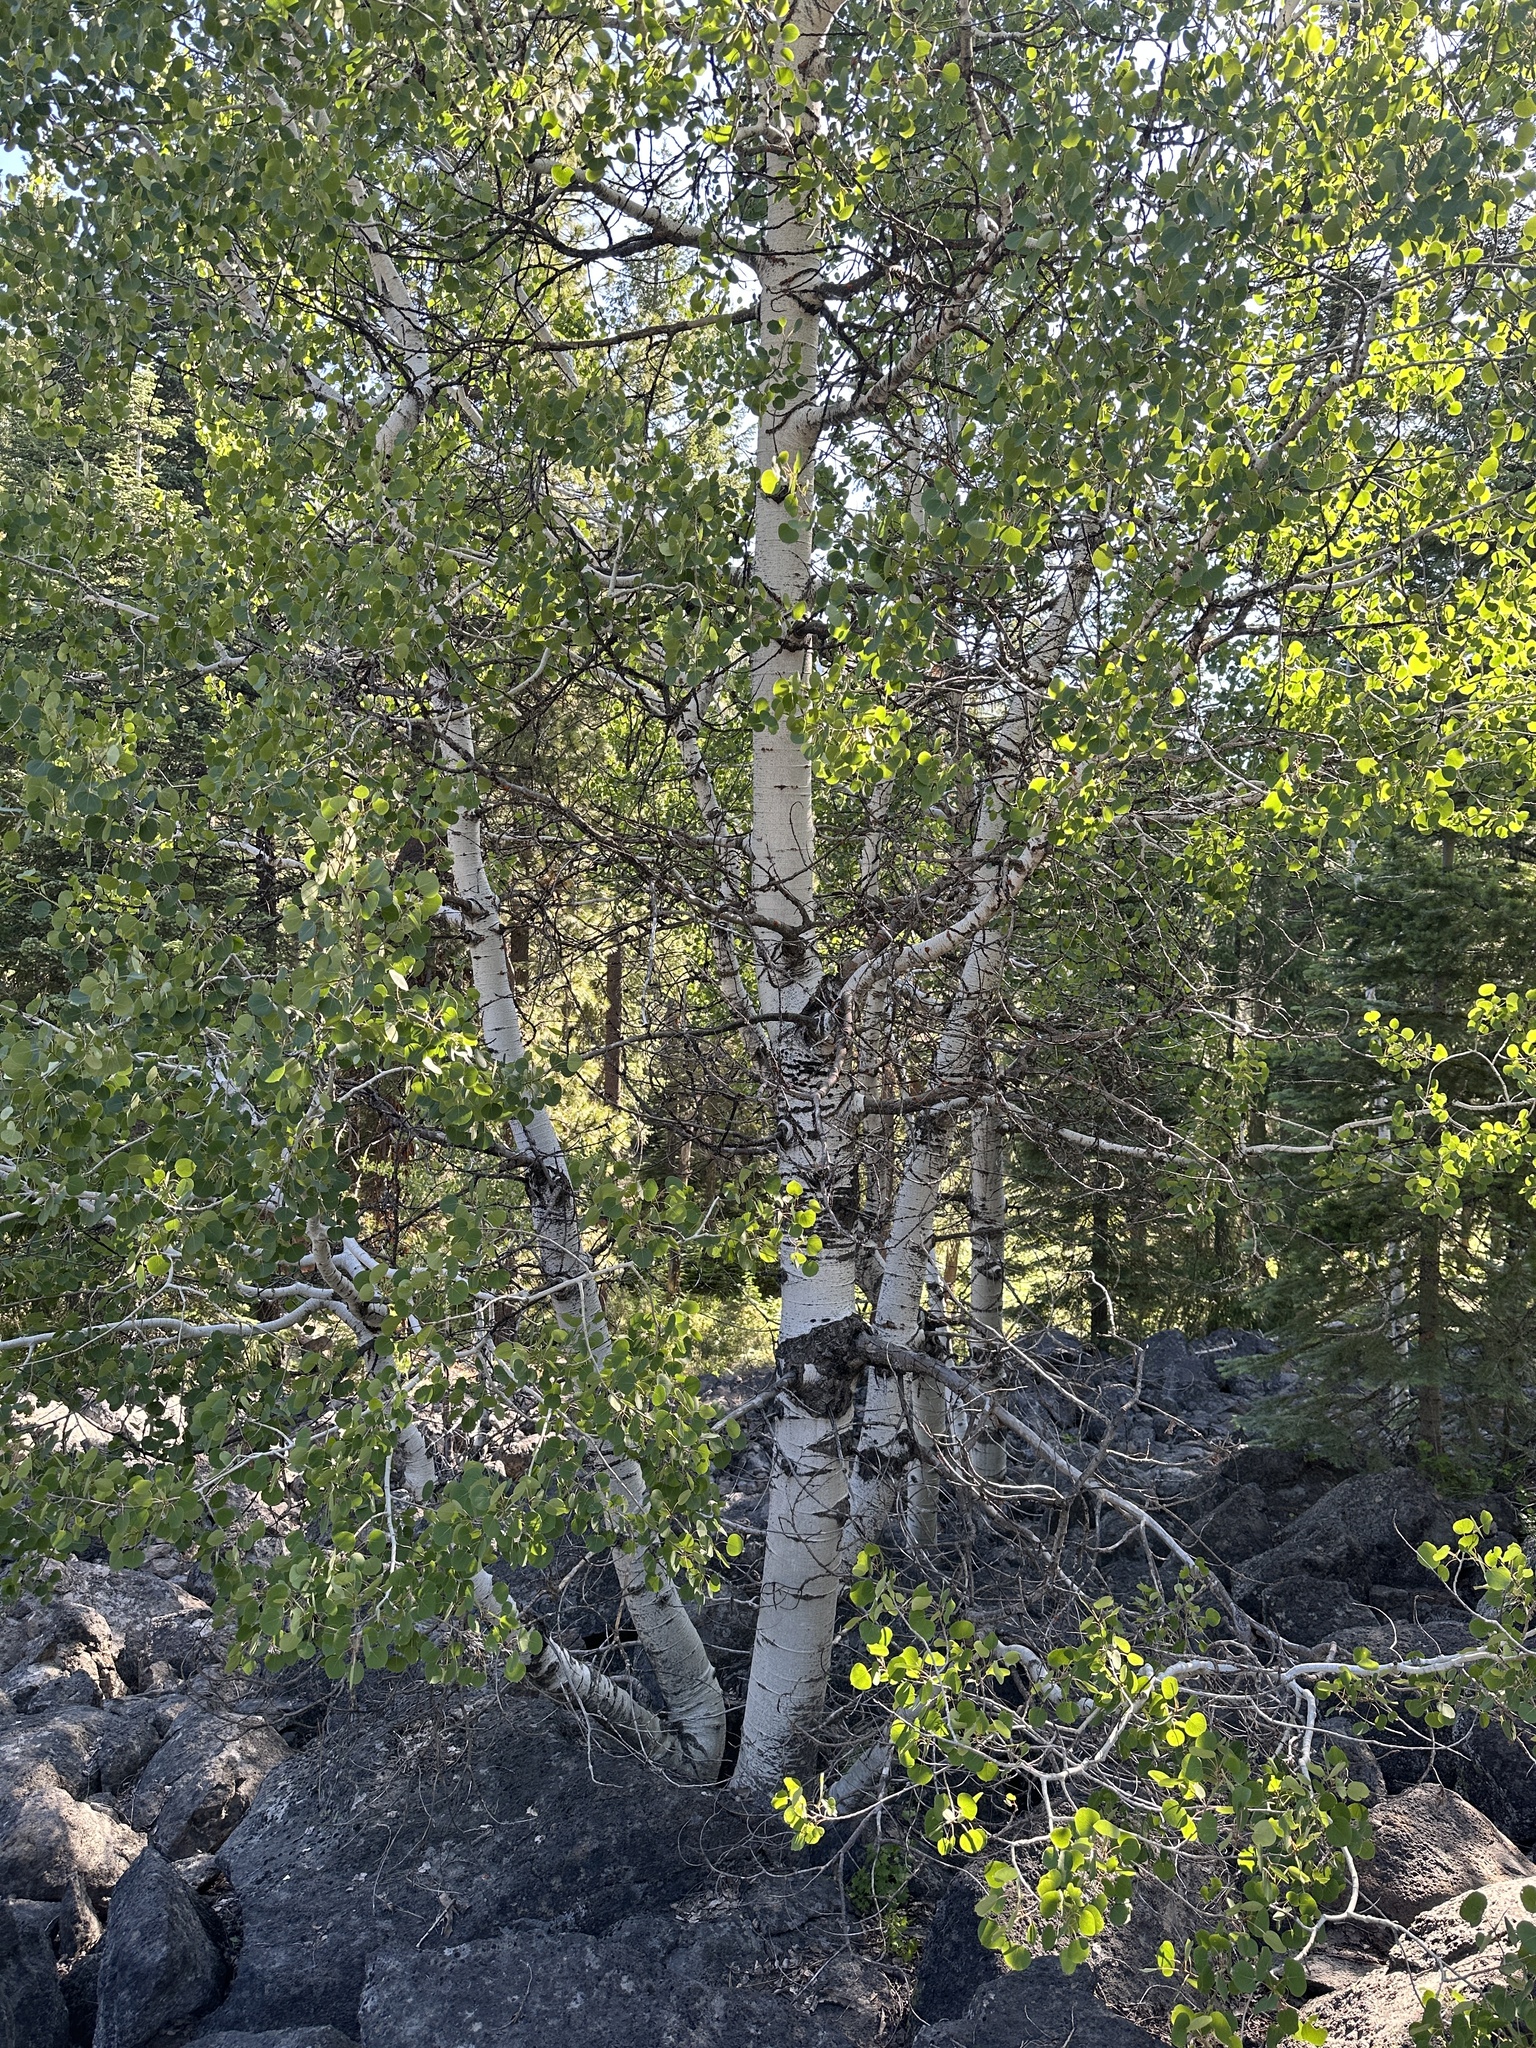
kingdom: Plantae
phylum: Tracheophyta
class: Magnoliopsida
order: Malpighiales
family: Salicaceae
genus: Populus
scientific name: Populus tremuloides
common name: Quaking aspen
